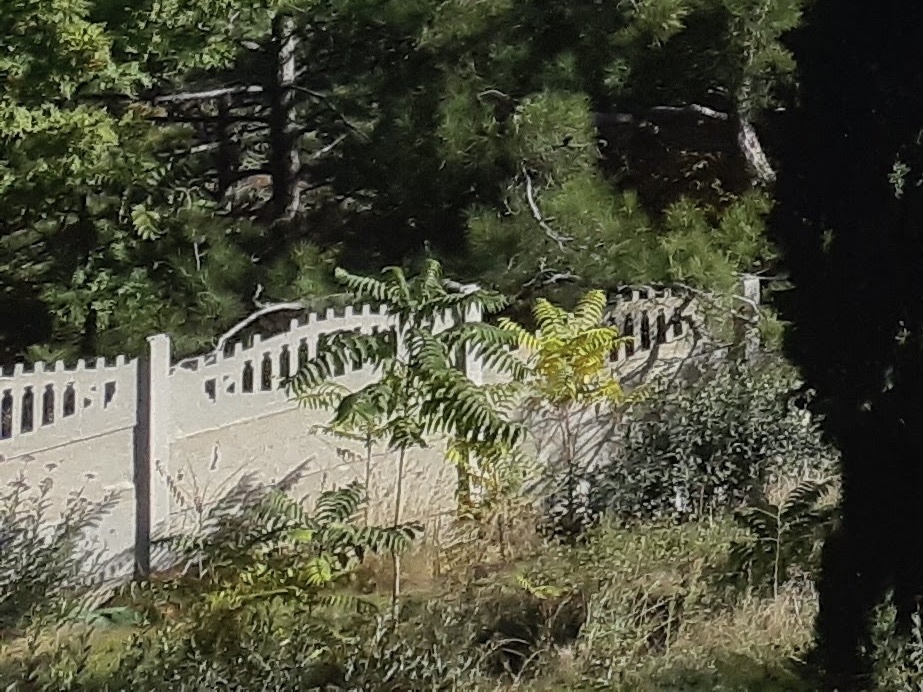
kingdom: Plantae
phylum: Tracheophyta
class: Magnoliopsida
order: Sapindales
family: Simaroubaceae
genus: Ailanthus
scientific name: Ailanthus altissima
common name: Tree-of-heaven
